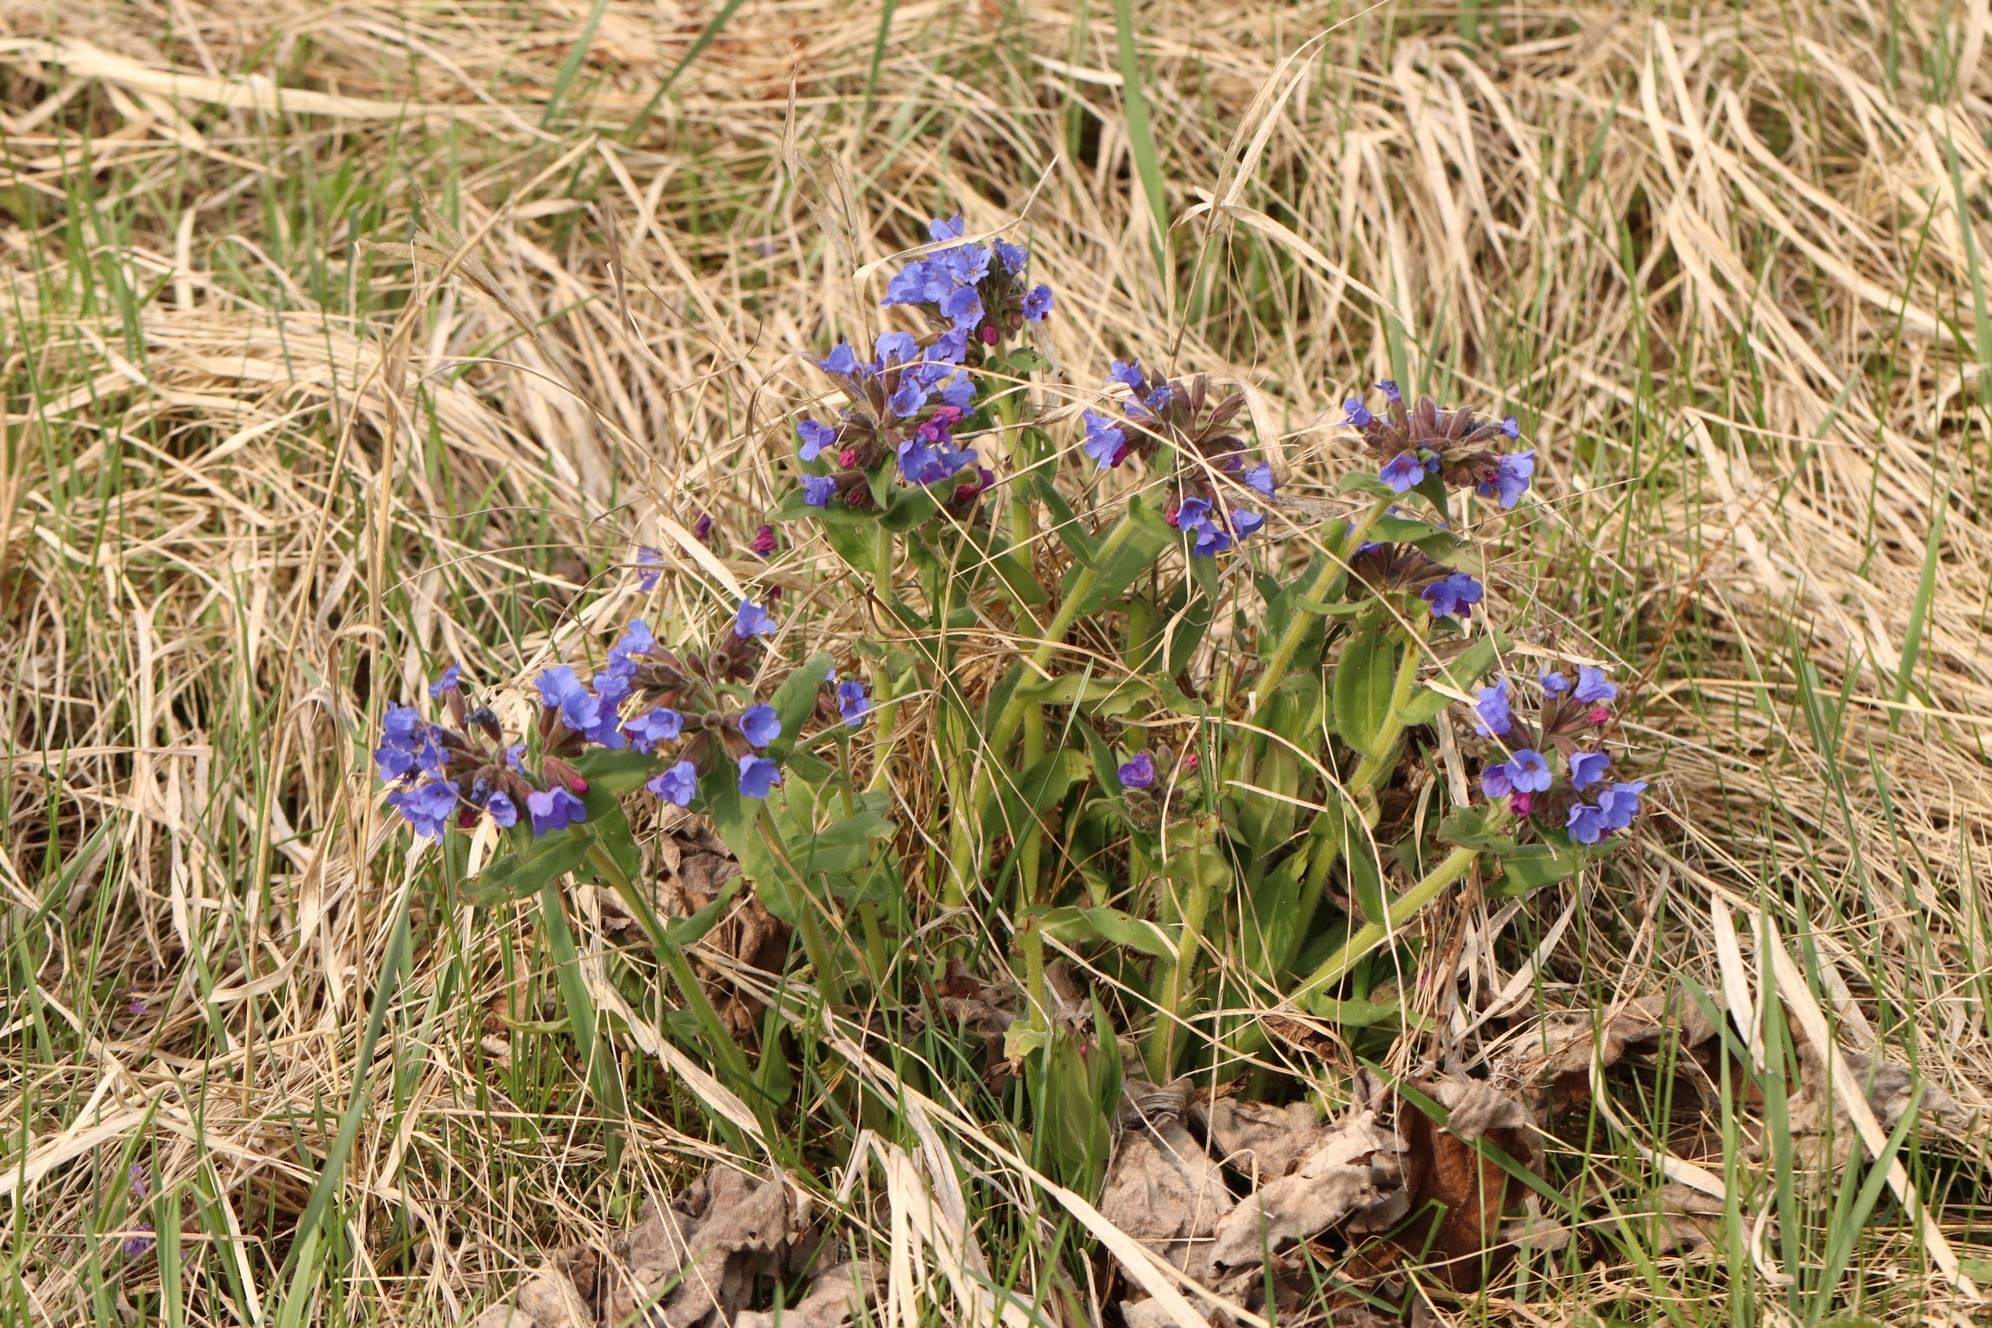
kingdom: Plantae
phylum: Tracheophyta
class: Magnoliopsida
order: Boraginales
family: Boraginaceae
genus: Pulmonaria
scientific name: Pulmonaria mollis
